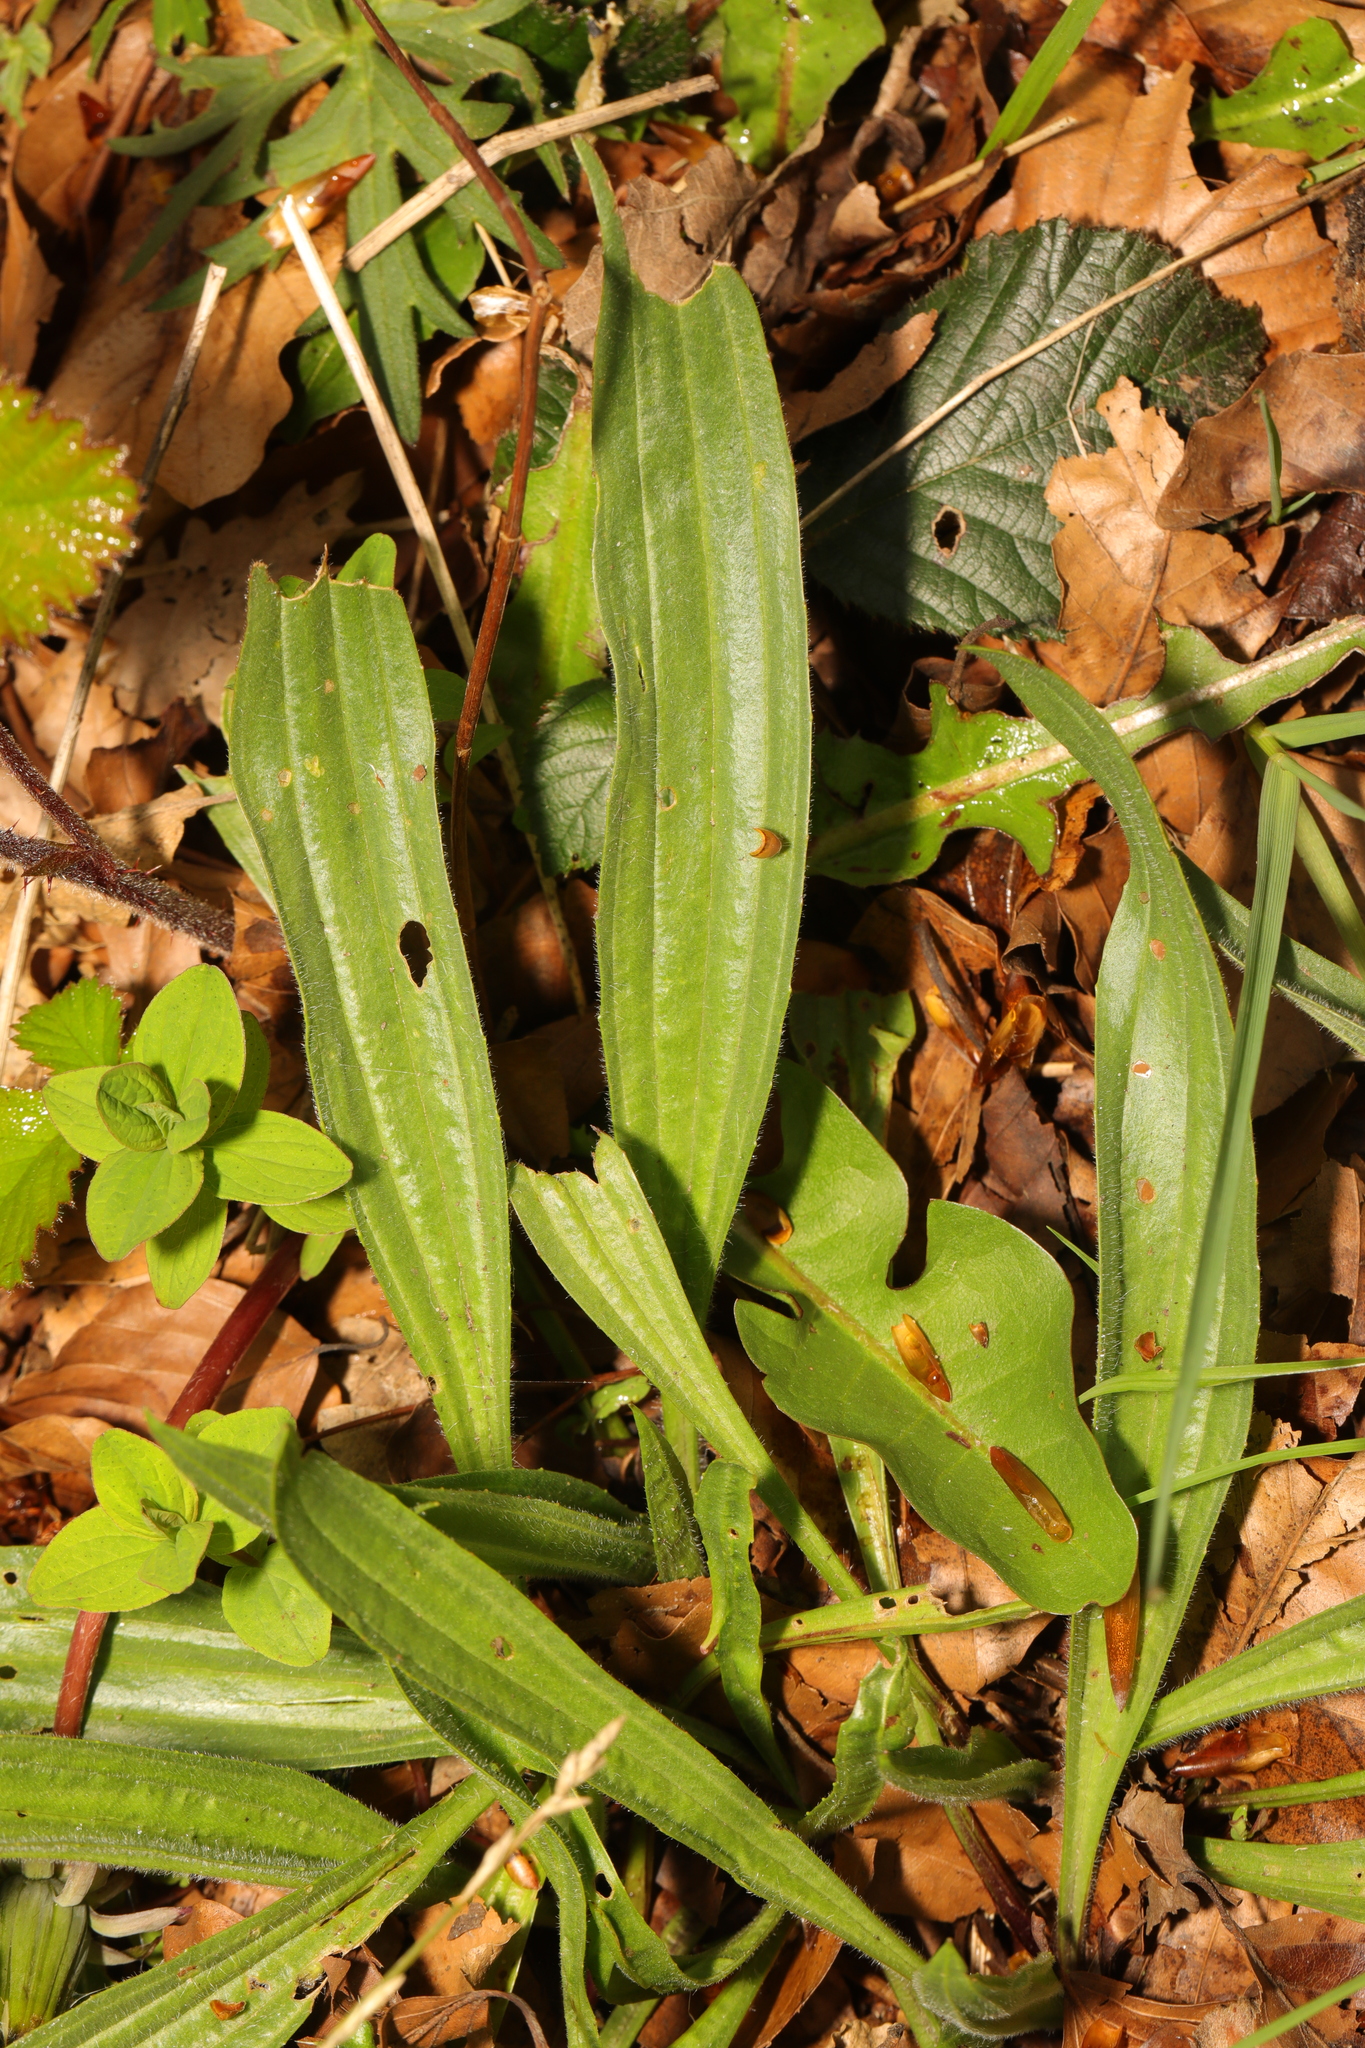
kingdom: Plantae
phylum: Tracheophyta
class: Magnoliopsida
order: Lamiales
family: Plantaginaceae
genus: Plantago
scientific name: Plantago lanceolata
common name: Ribwort plantain
